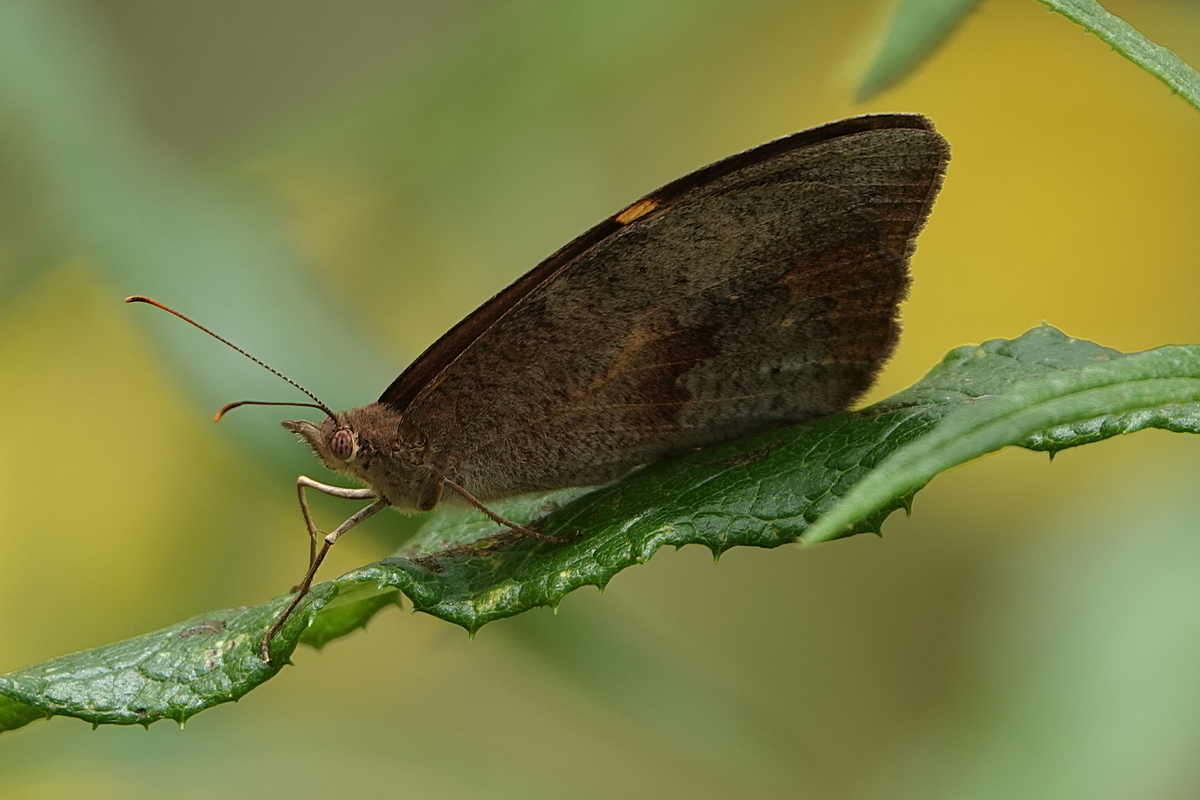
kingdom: Animalia
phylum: Arthropoda
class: Insecta
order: Lepidoptera
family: Nymphalidae
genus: Heteronympha
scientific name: Heteronympha merope
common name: Common brown
